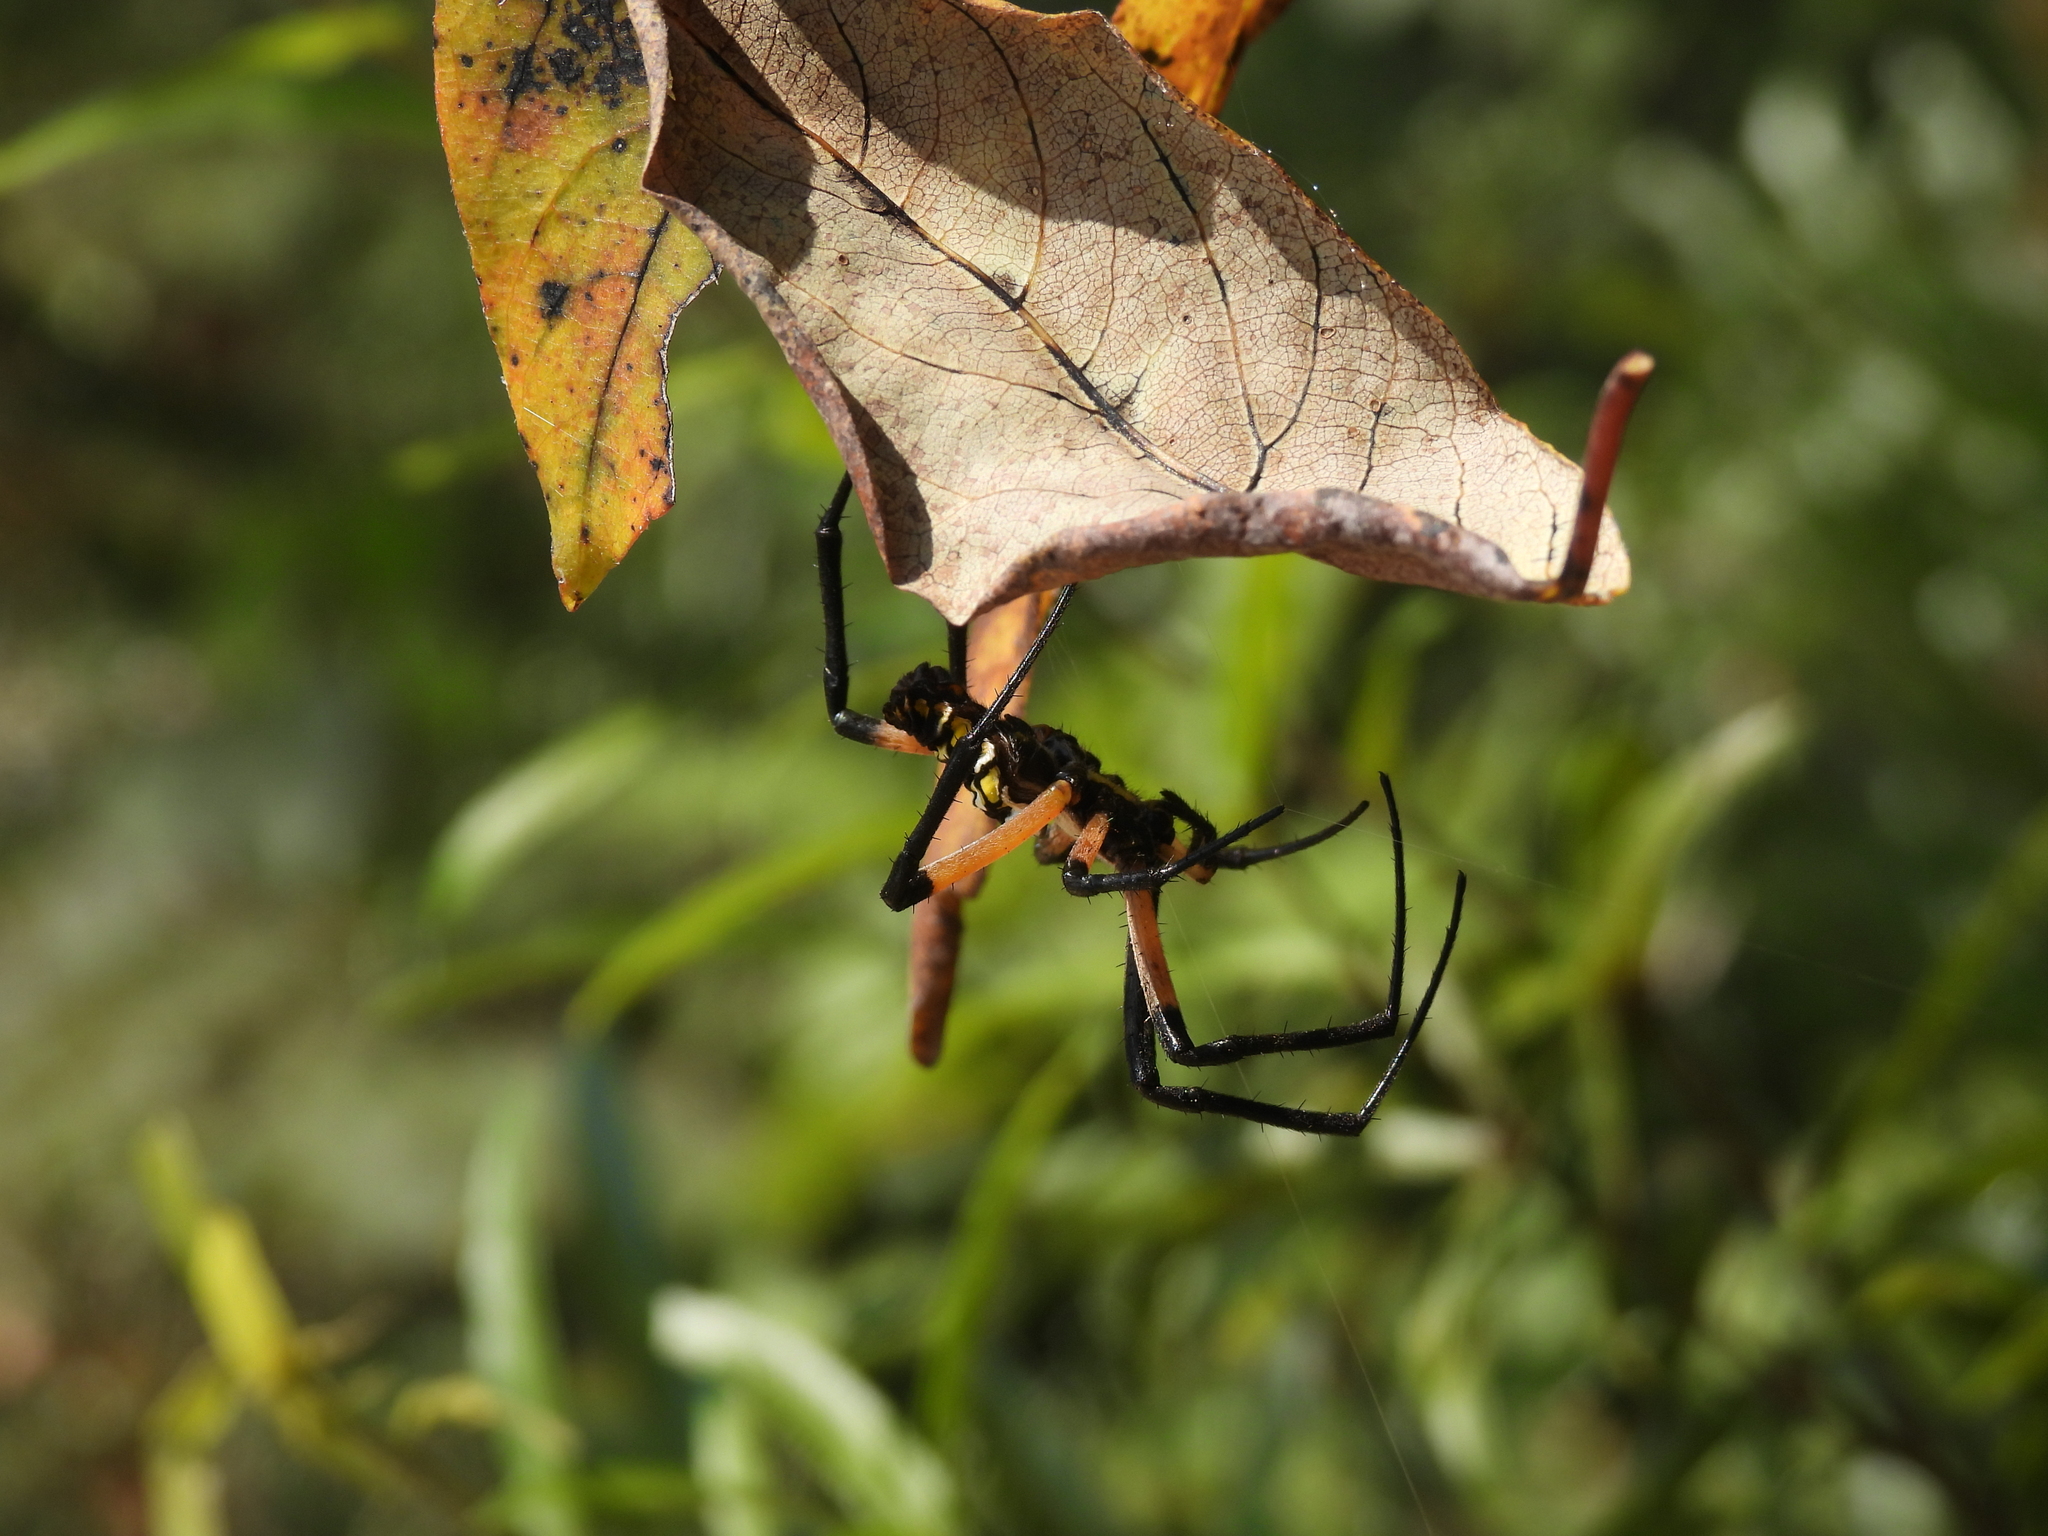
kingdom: Animalia
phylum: Arthropoda
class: Arachnida
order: Araneae
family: Araneidae
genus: Argiope
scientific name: Argiope aurantia
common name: Orb weavers
